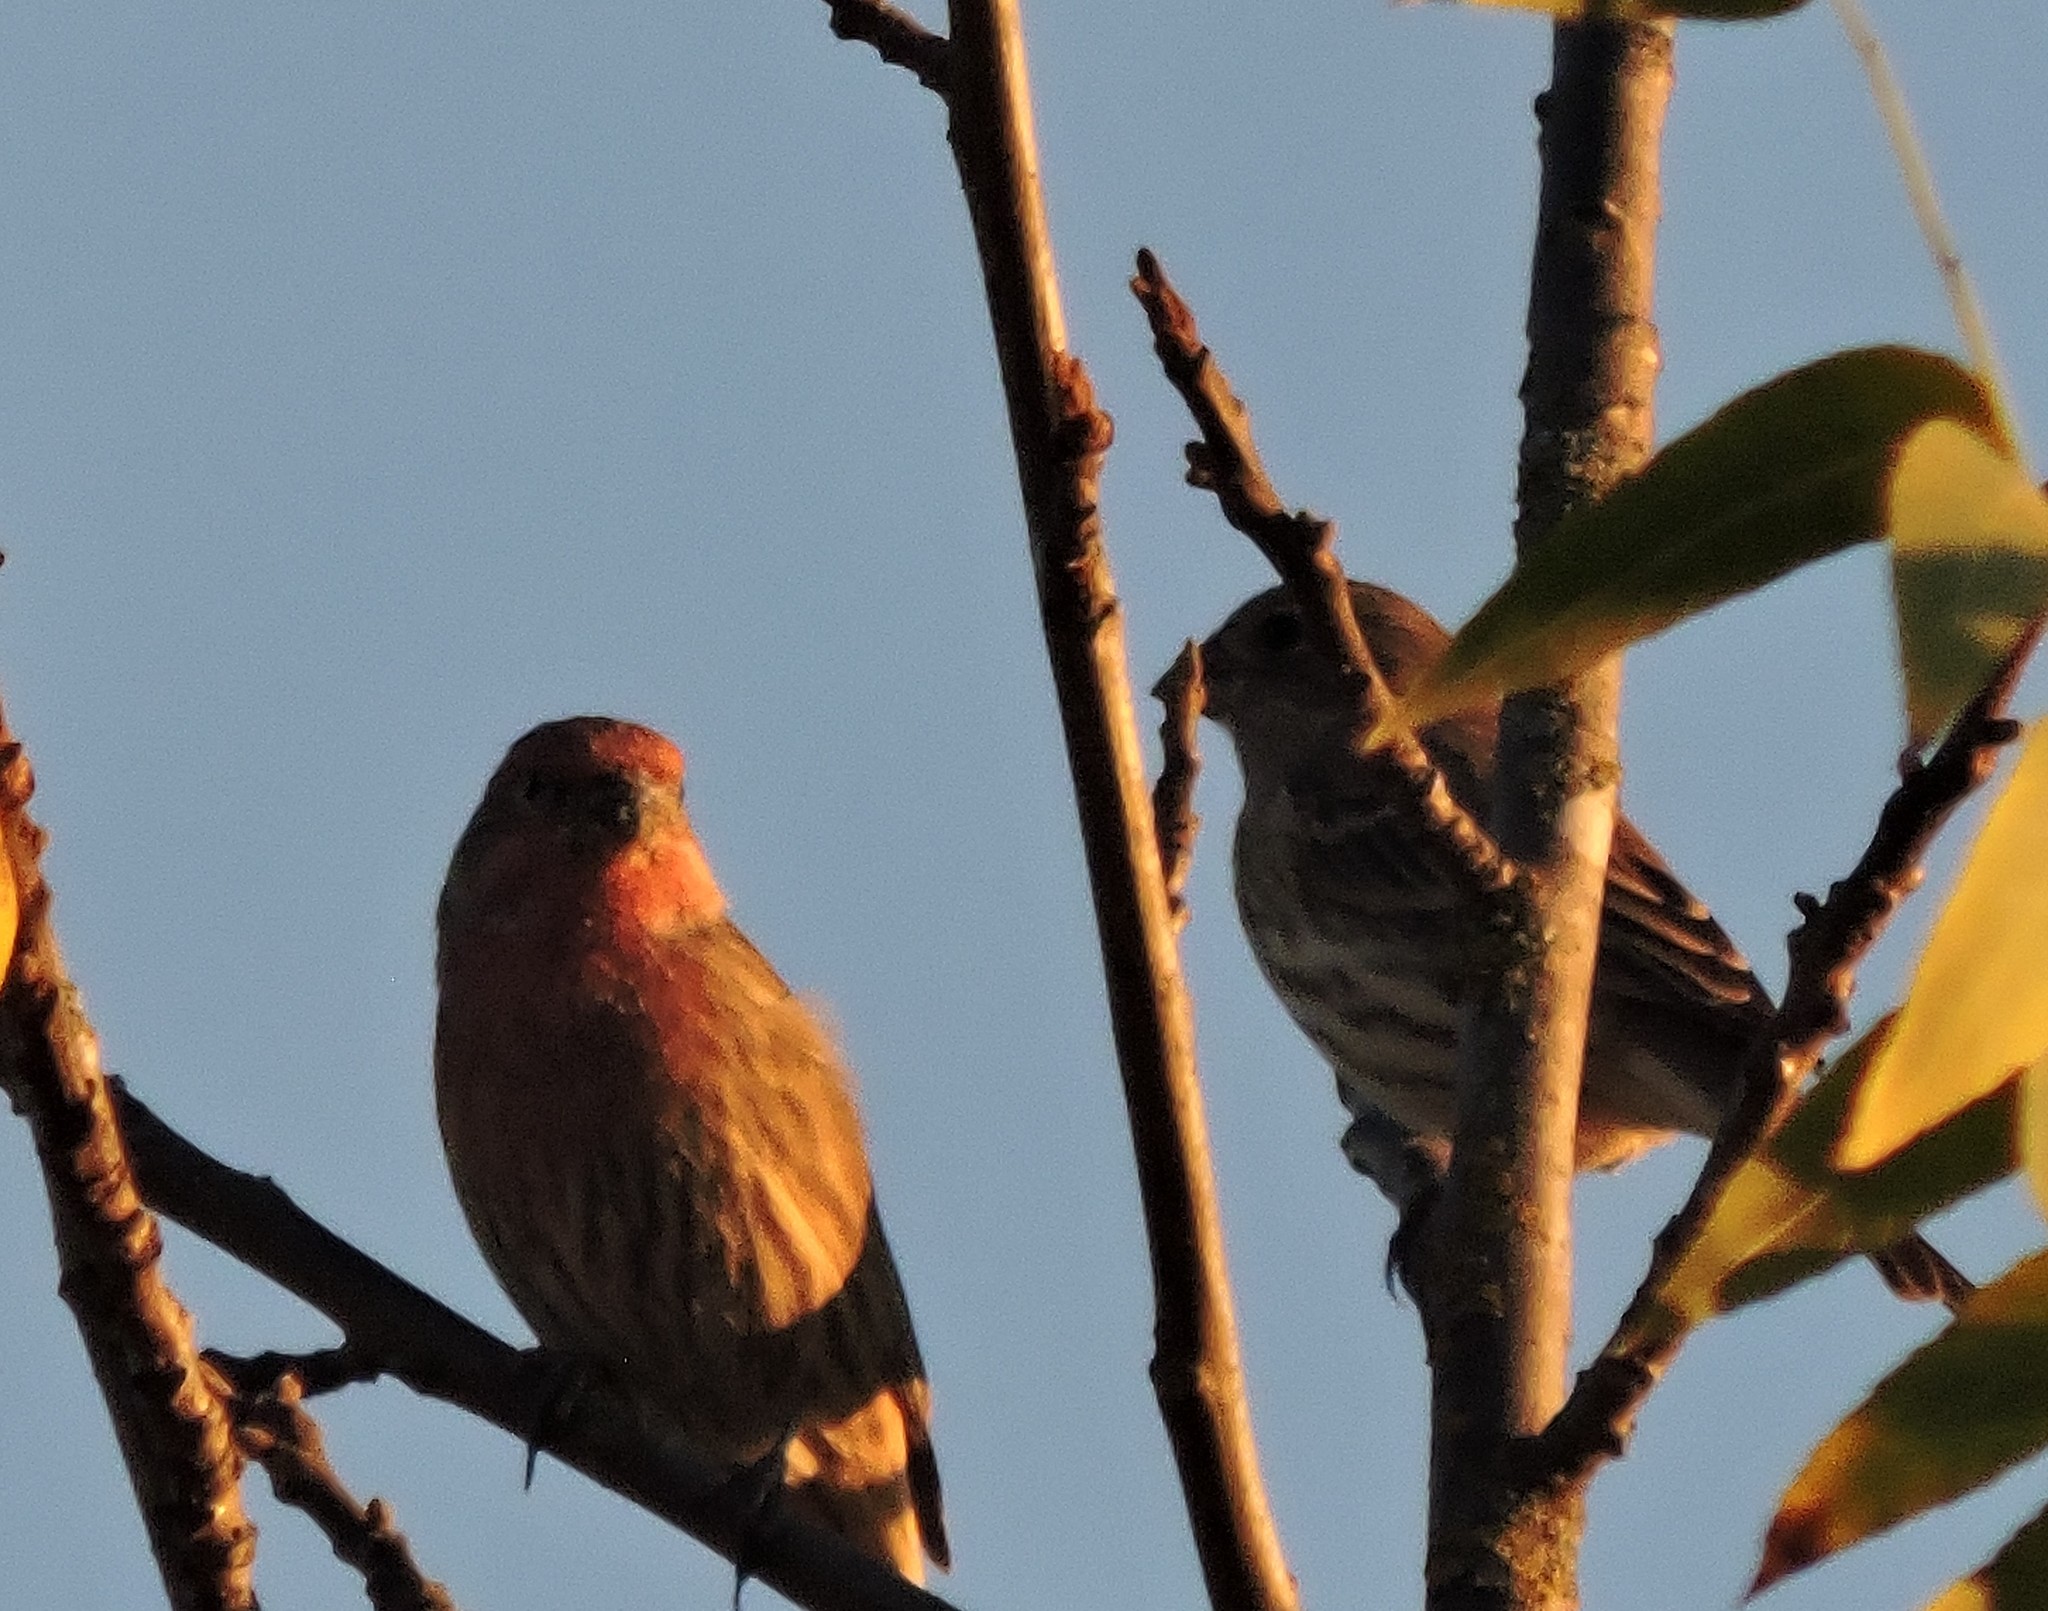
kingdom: Animalia
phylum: Chordata
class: Aves
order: Passeriformes
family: Fringillidae
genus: Haemorhous
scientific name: Haemorhous mexicanus
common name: House finch
